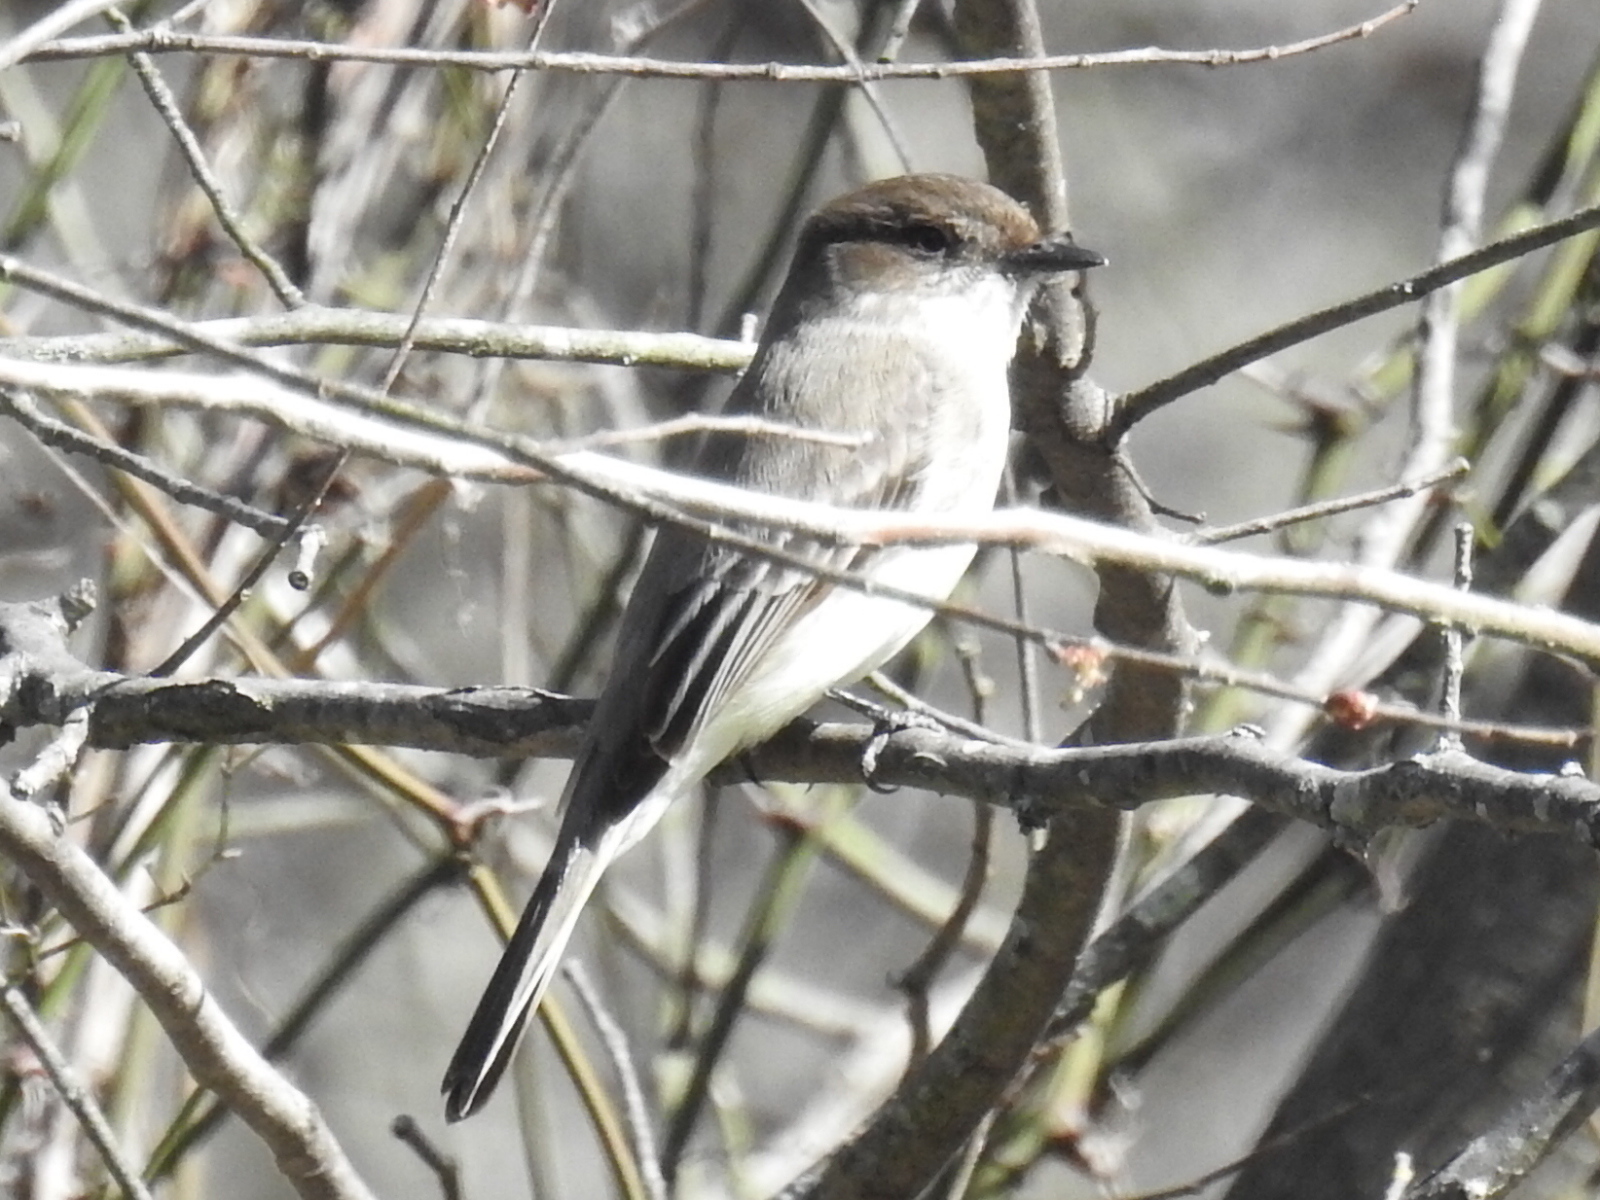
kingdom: Animalia
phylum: Chordata
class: Aves
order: Passeriformes
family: Tyrannidae
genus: Sayornis
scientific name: Sayornis phoebe
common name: Eastern phoebe
